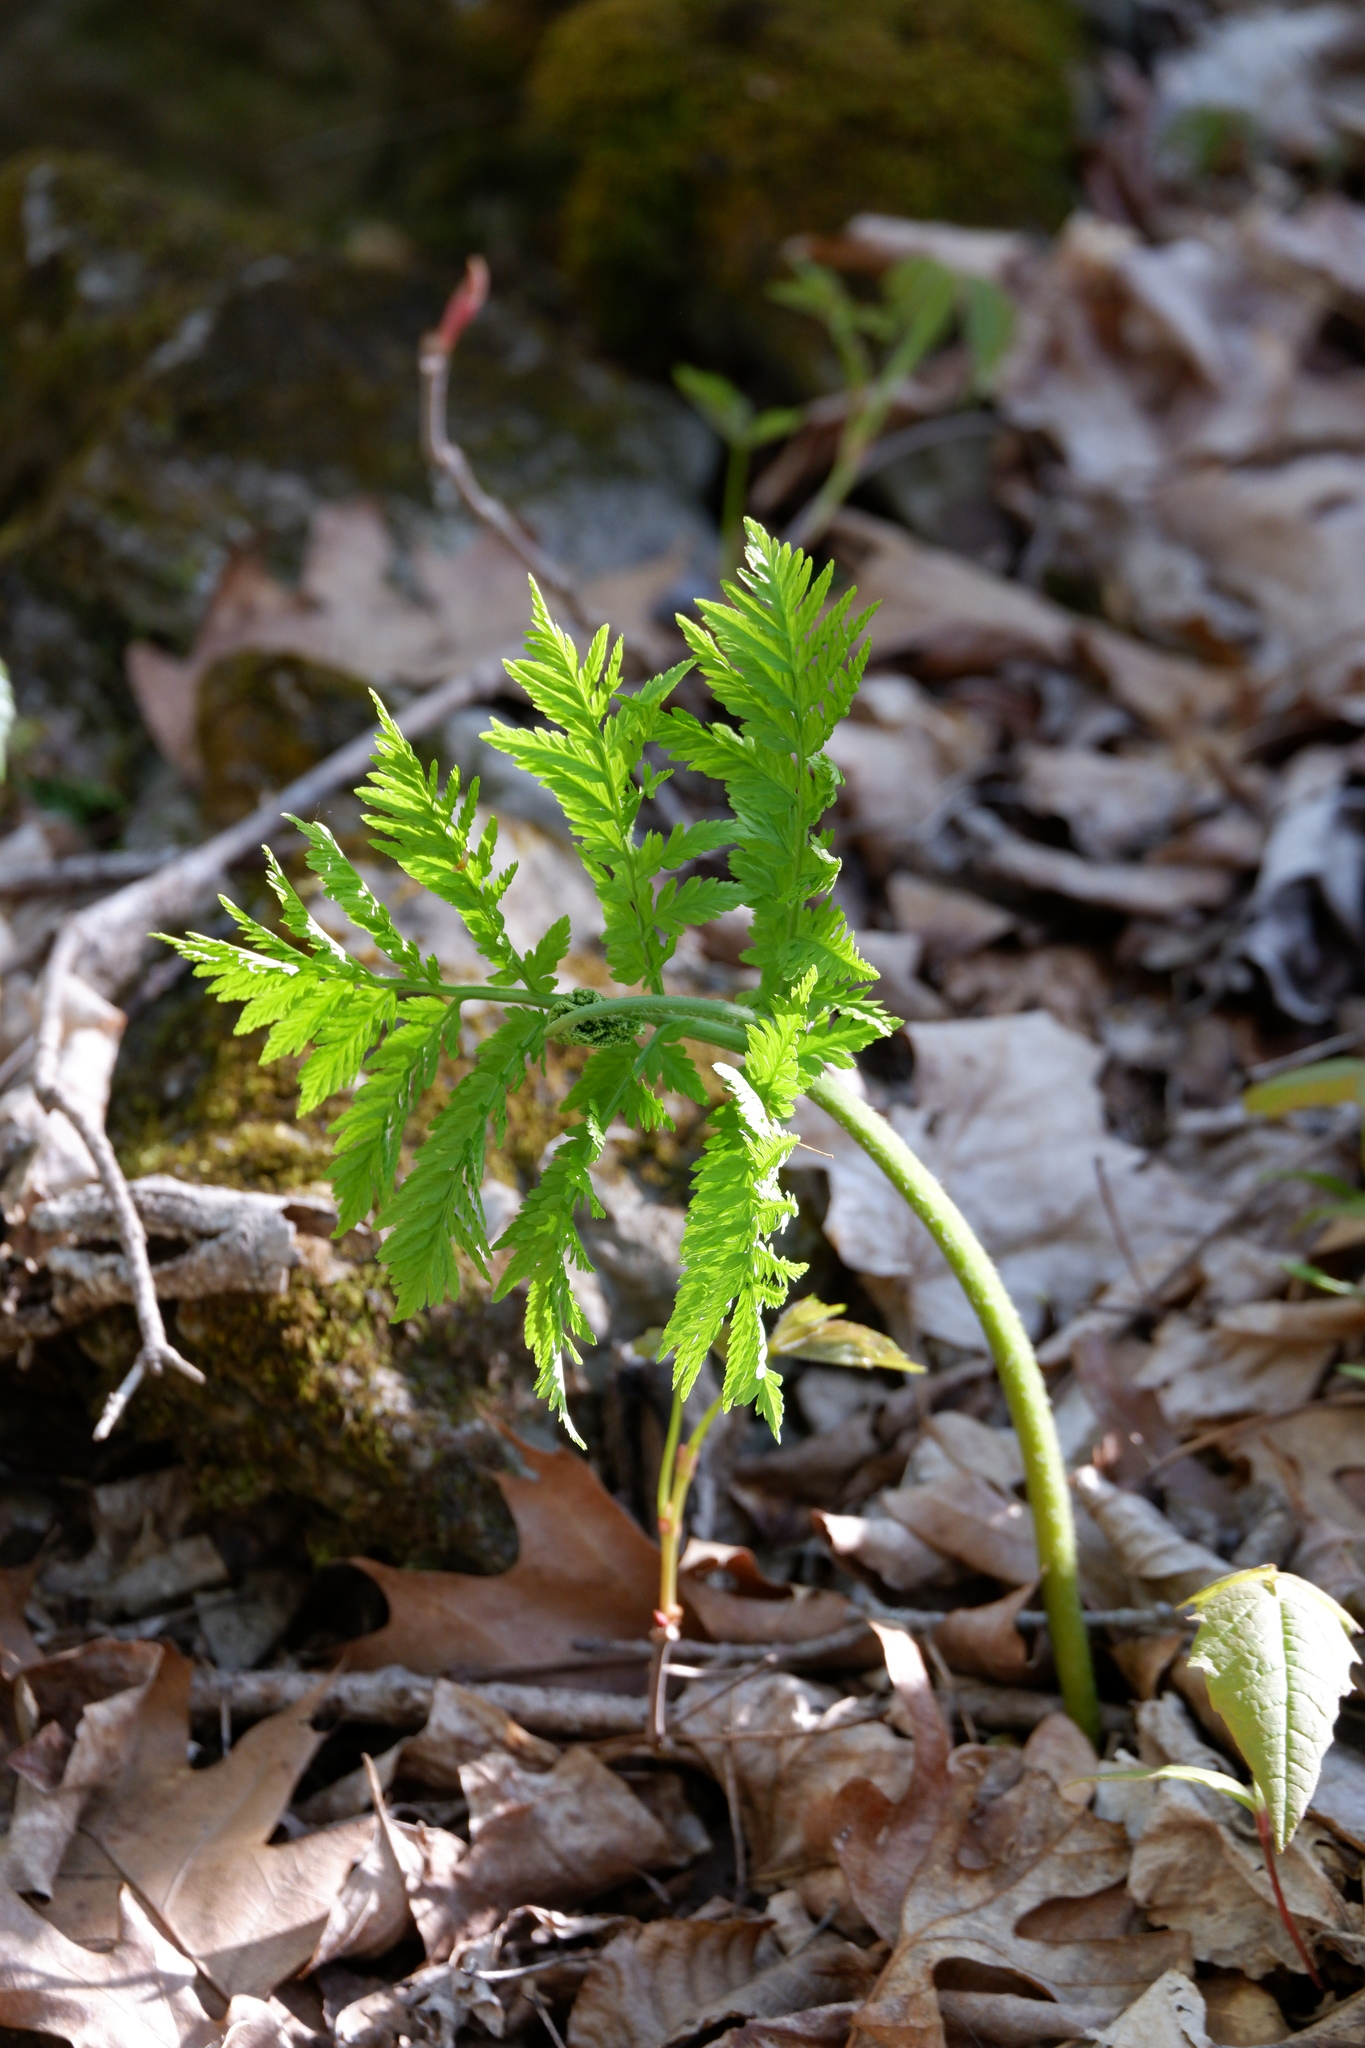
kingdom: Plantae
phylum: Tracheophyta
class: Polypodiopsida
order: Ophioglossales
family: Ophioglossaceae
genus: Botrypus
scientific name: Botrypus virginianus
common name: Common grapefern
